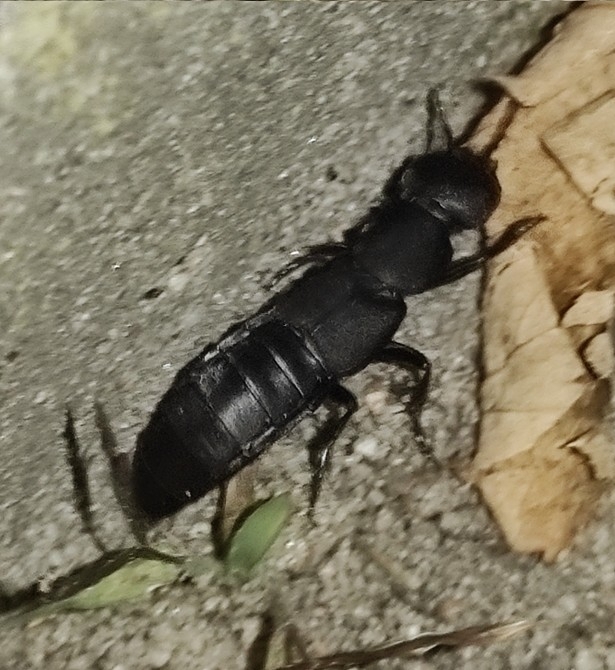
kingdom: Animalia
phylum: Arthropoda
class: Insecta
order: Coleoptera
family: Staphylinidae
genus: Ocypus
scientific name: Ocypus olens
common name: Devil's coach-horse
